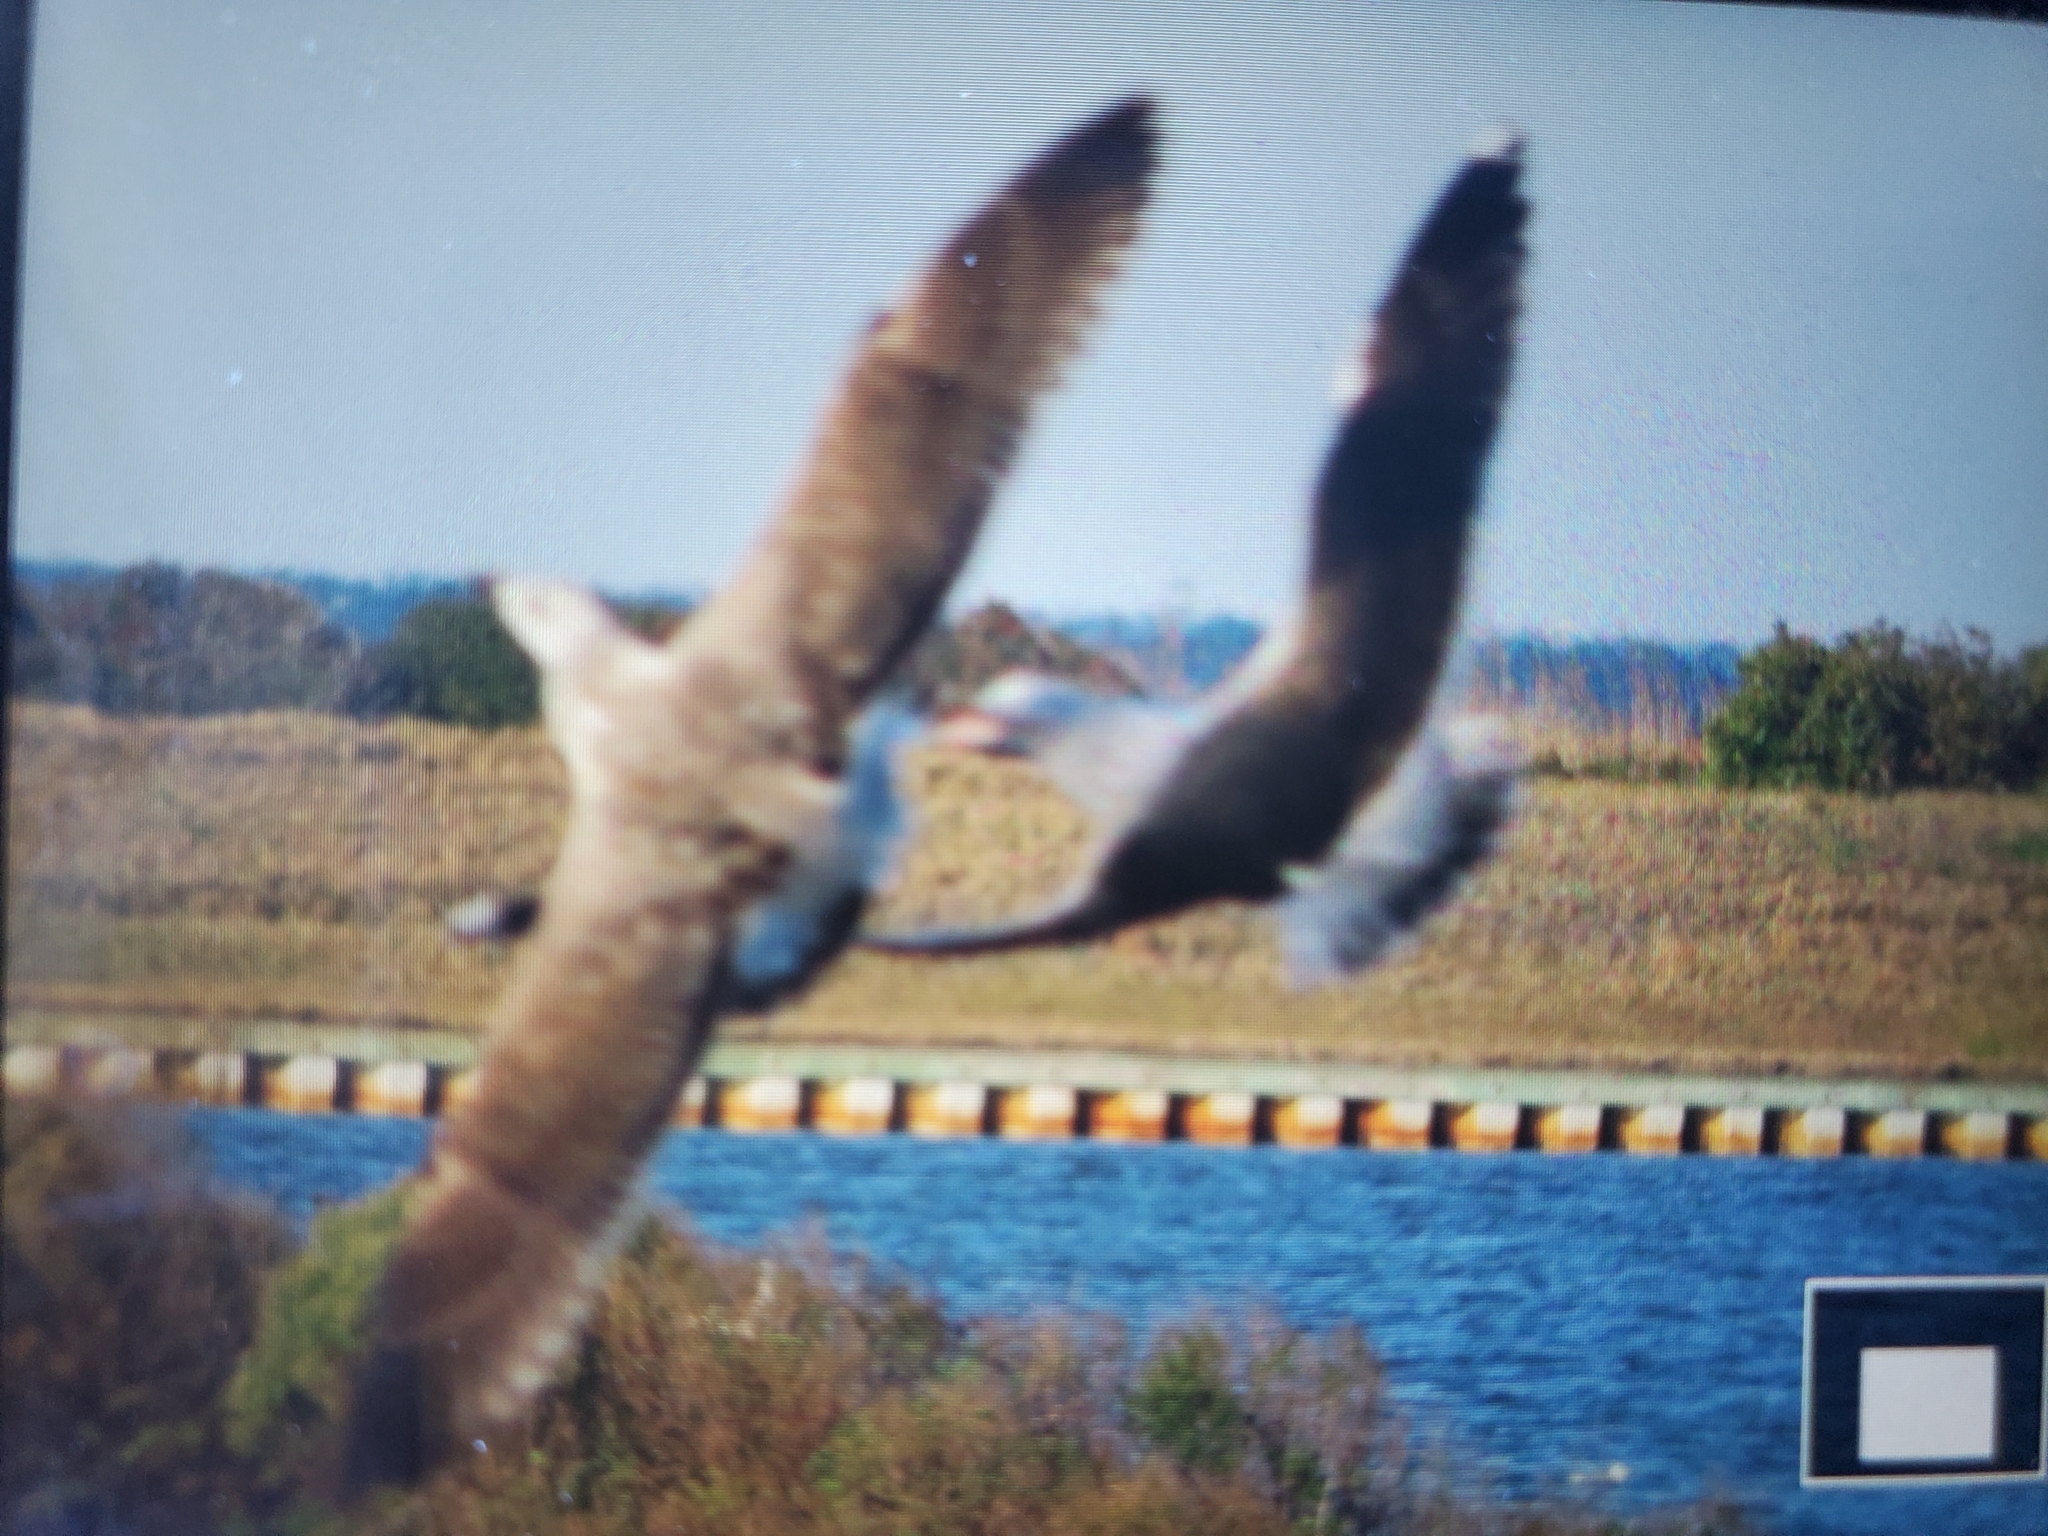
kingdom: Animalia
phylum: Chordata
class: Aves
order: Charadriiformes
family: Laridae
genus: Larus
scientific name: Larus marinus
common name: Great black-backed gull
